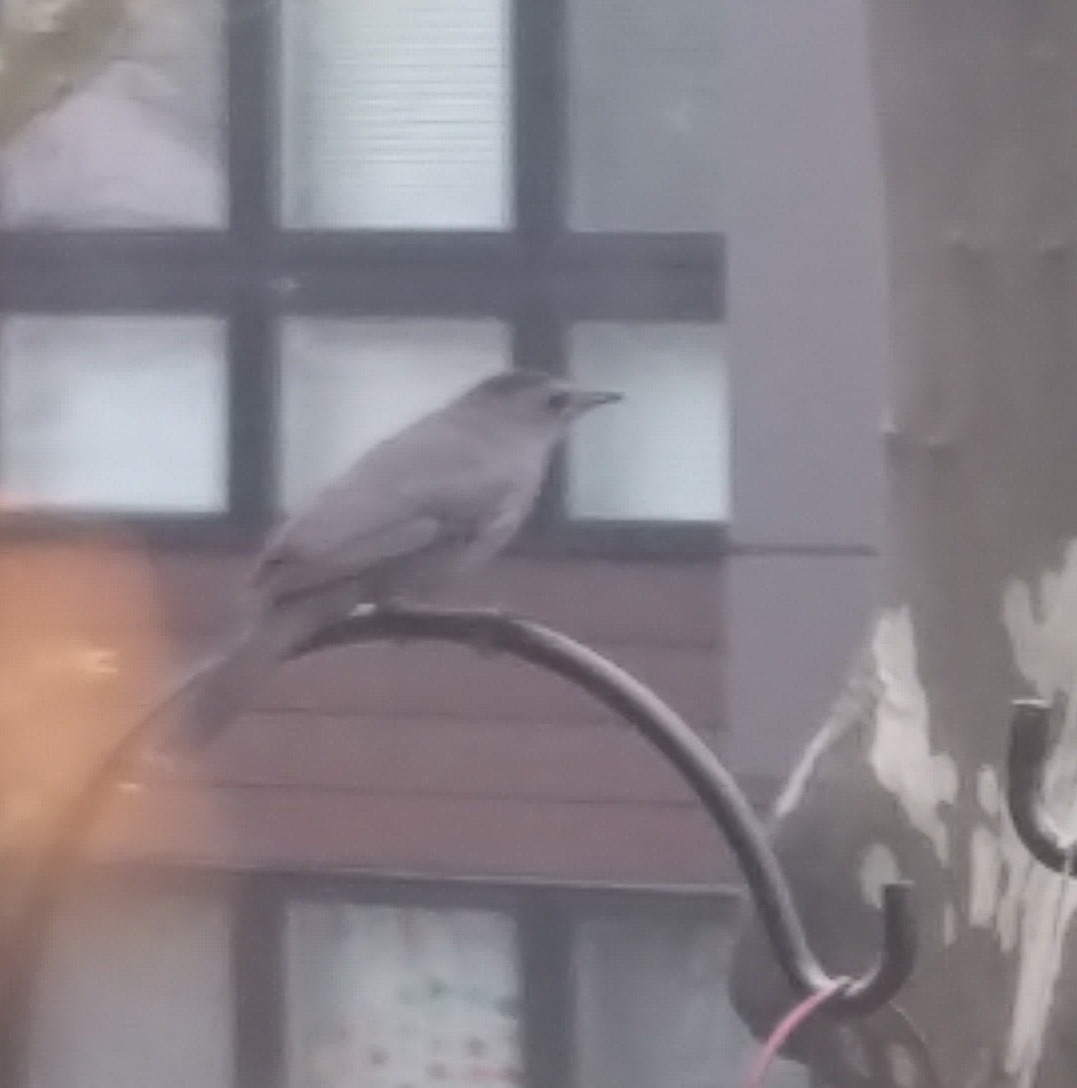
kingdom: Animalia
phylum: Chordata
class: Aves
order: Passeriformes
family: Mimidae
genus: Dumetella
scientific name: Dumetella carolinensis
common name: Gray catbird
